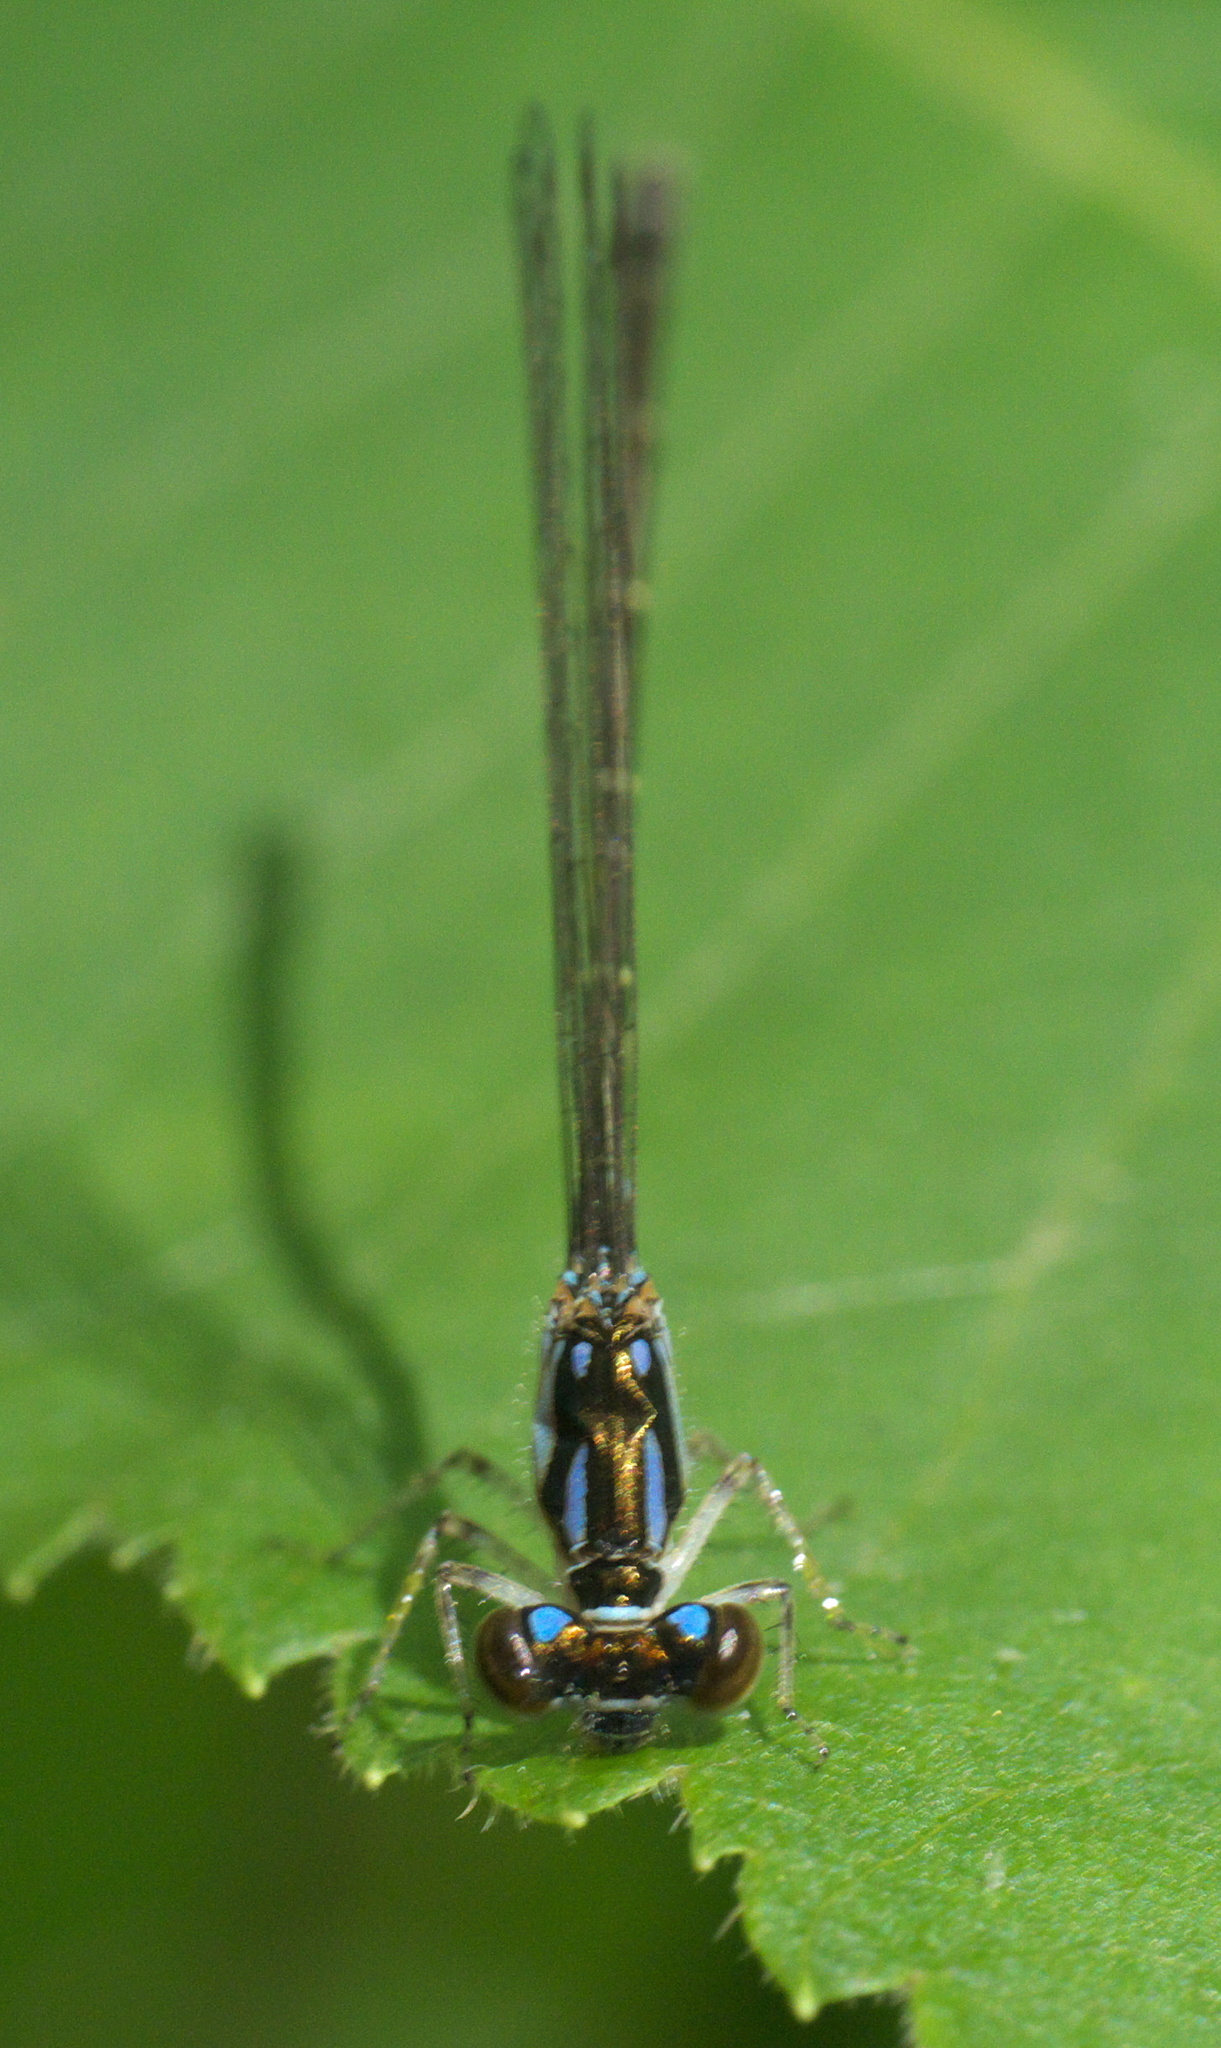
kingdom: Animalia
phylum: Arthropoda
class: Insecta
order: Odonata
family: Coenagrionidae
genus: Ischnura
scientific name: Ischnura posita
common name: Fragile forktail
